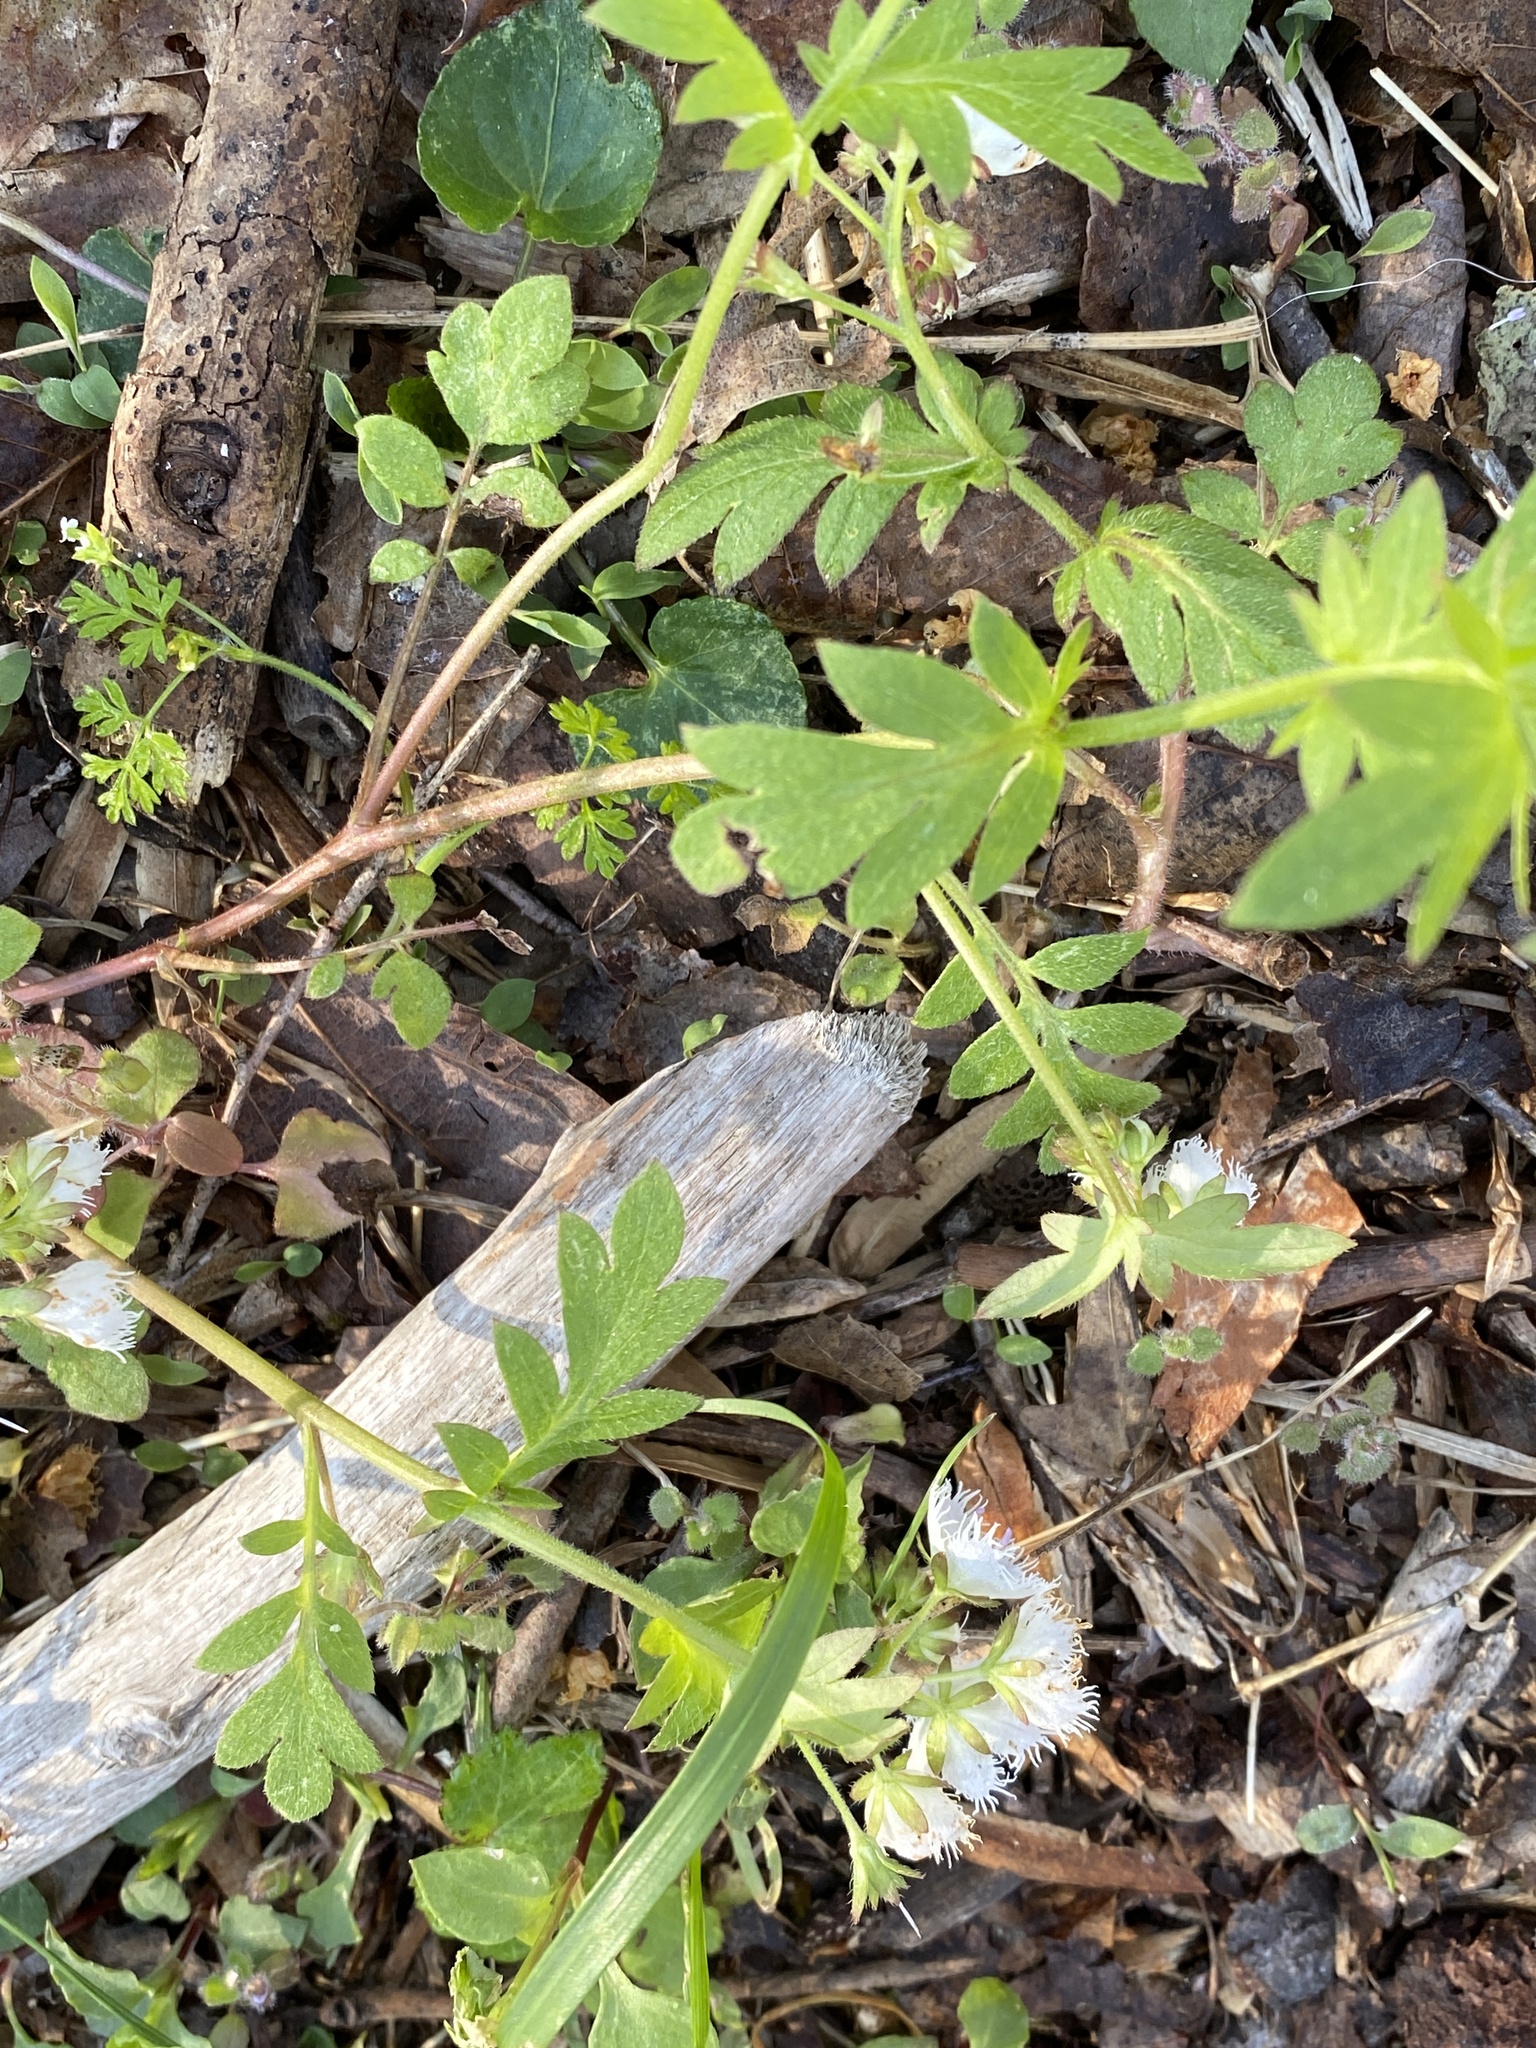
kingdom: Plantae
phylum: Tracheophyta
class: Magnoliopsida
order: Boraginales
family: Hydrophyllaceae
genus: Phacelia
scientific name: Phacelia fimbriata
